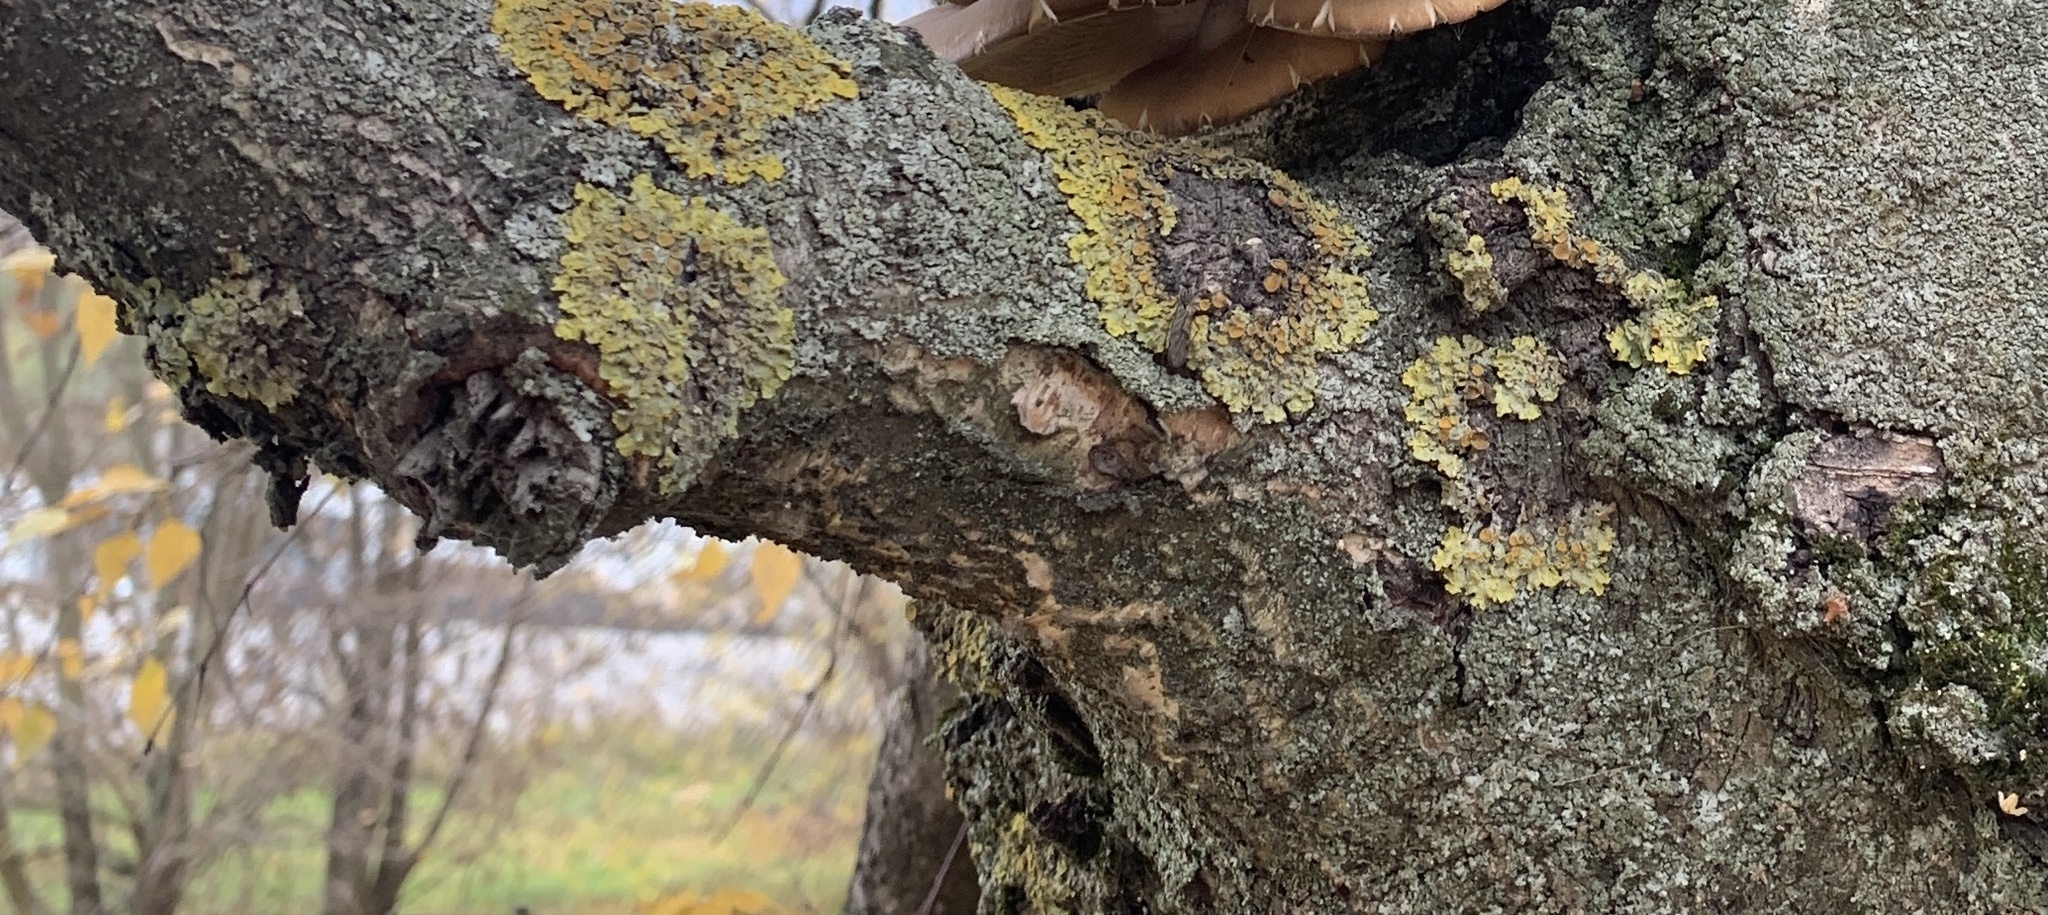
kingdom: Fungi
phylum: Ascomycota
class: Lecanoromycetes
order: Teloschistales
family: Teloschistaceae
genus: Xanthoria
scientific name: Xanthoria parietina
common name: Common orange lichen
